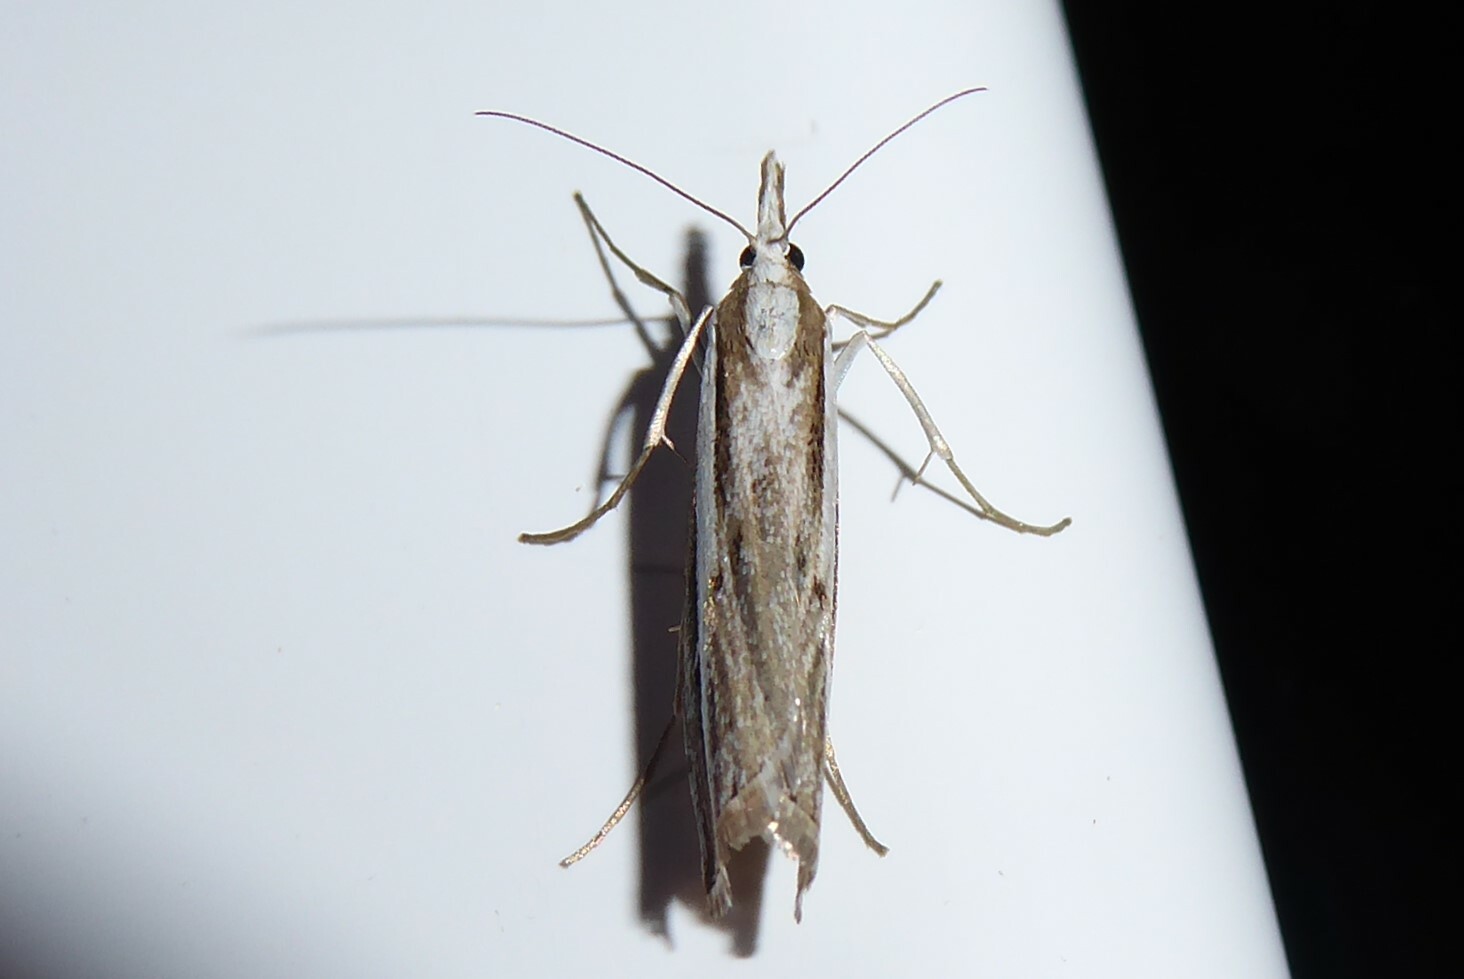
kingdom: Animalia
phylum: Arthropoda
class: Insecta
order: Lepidoptera
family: Crambidae
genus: Orocrambus
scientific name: Orocrambus vittellus
